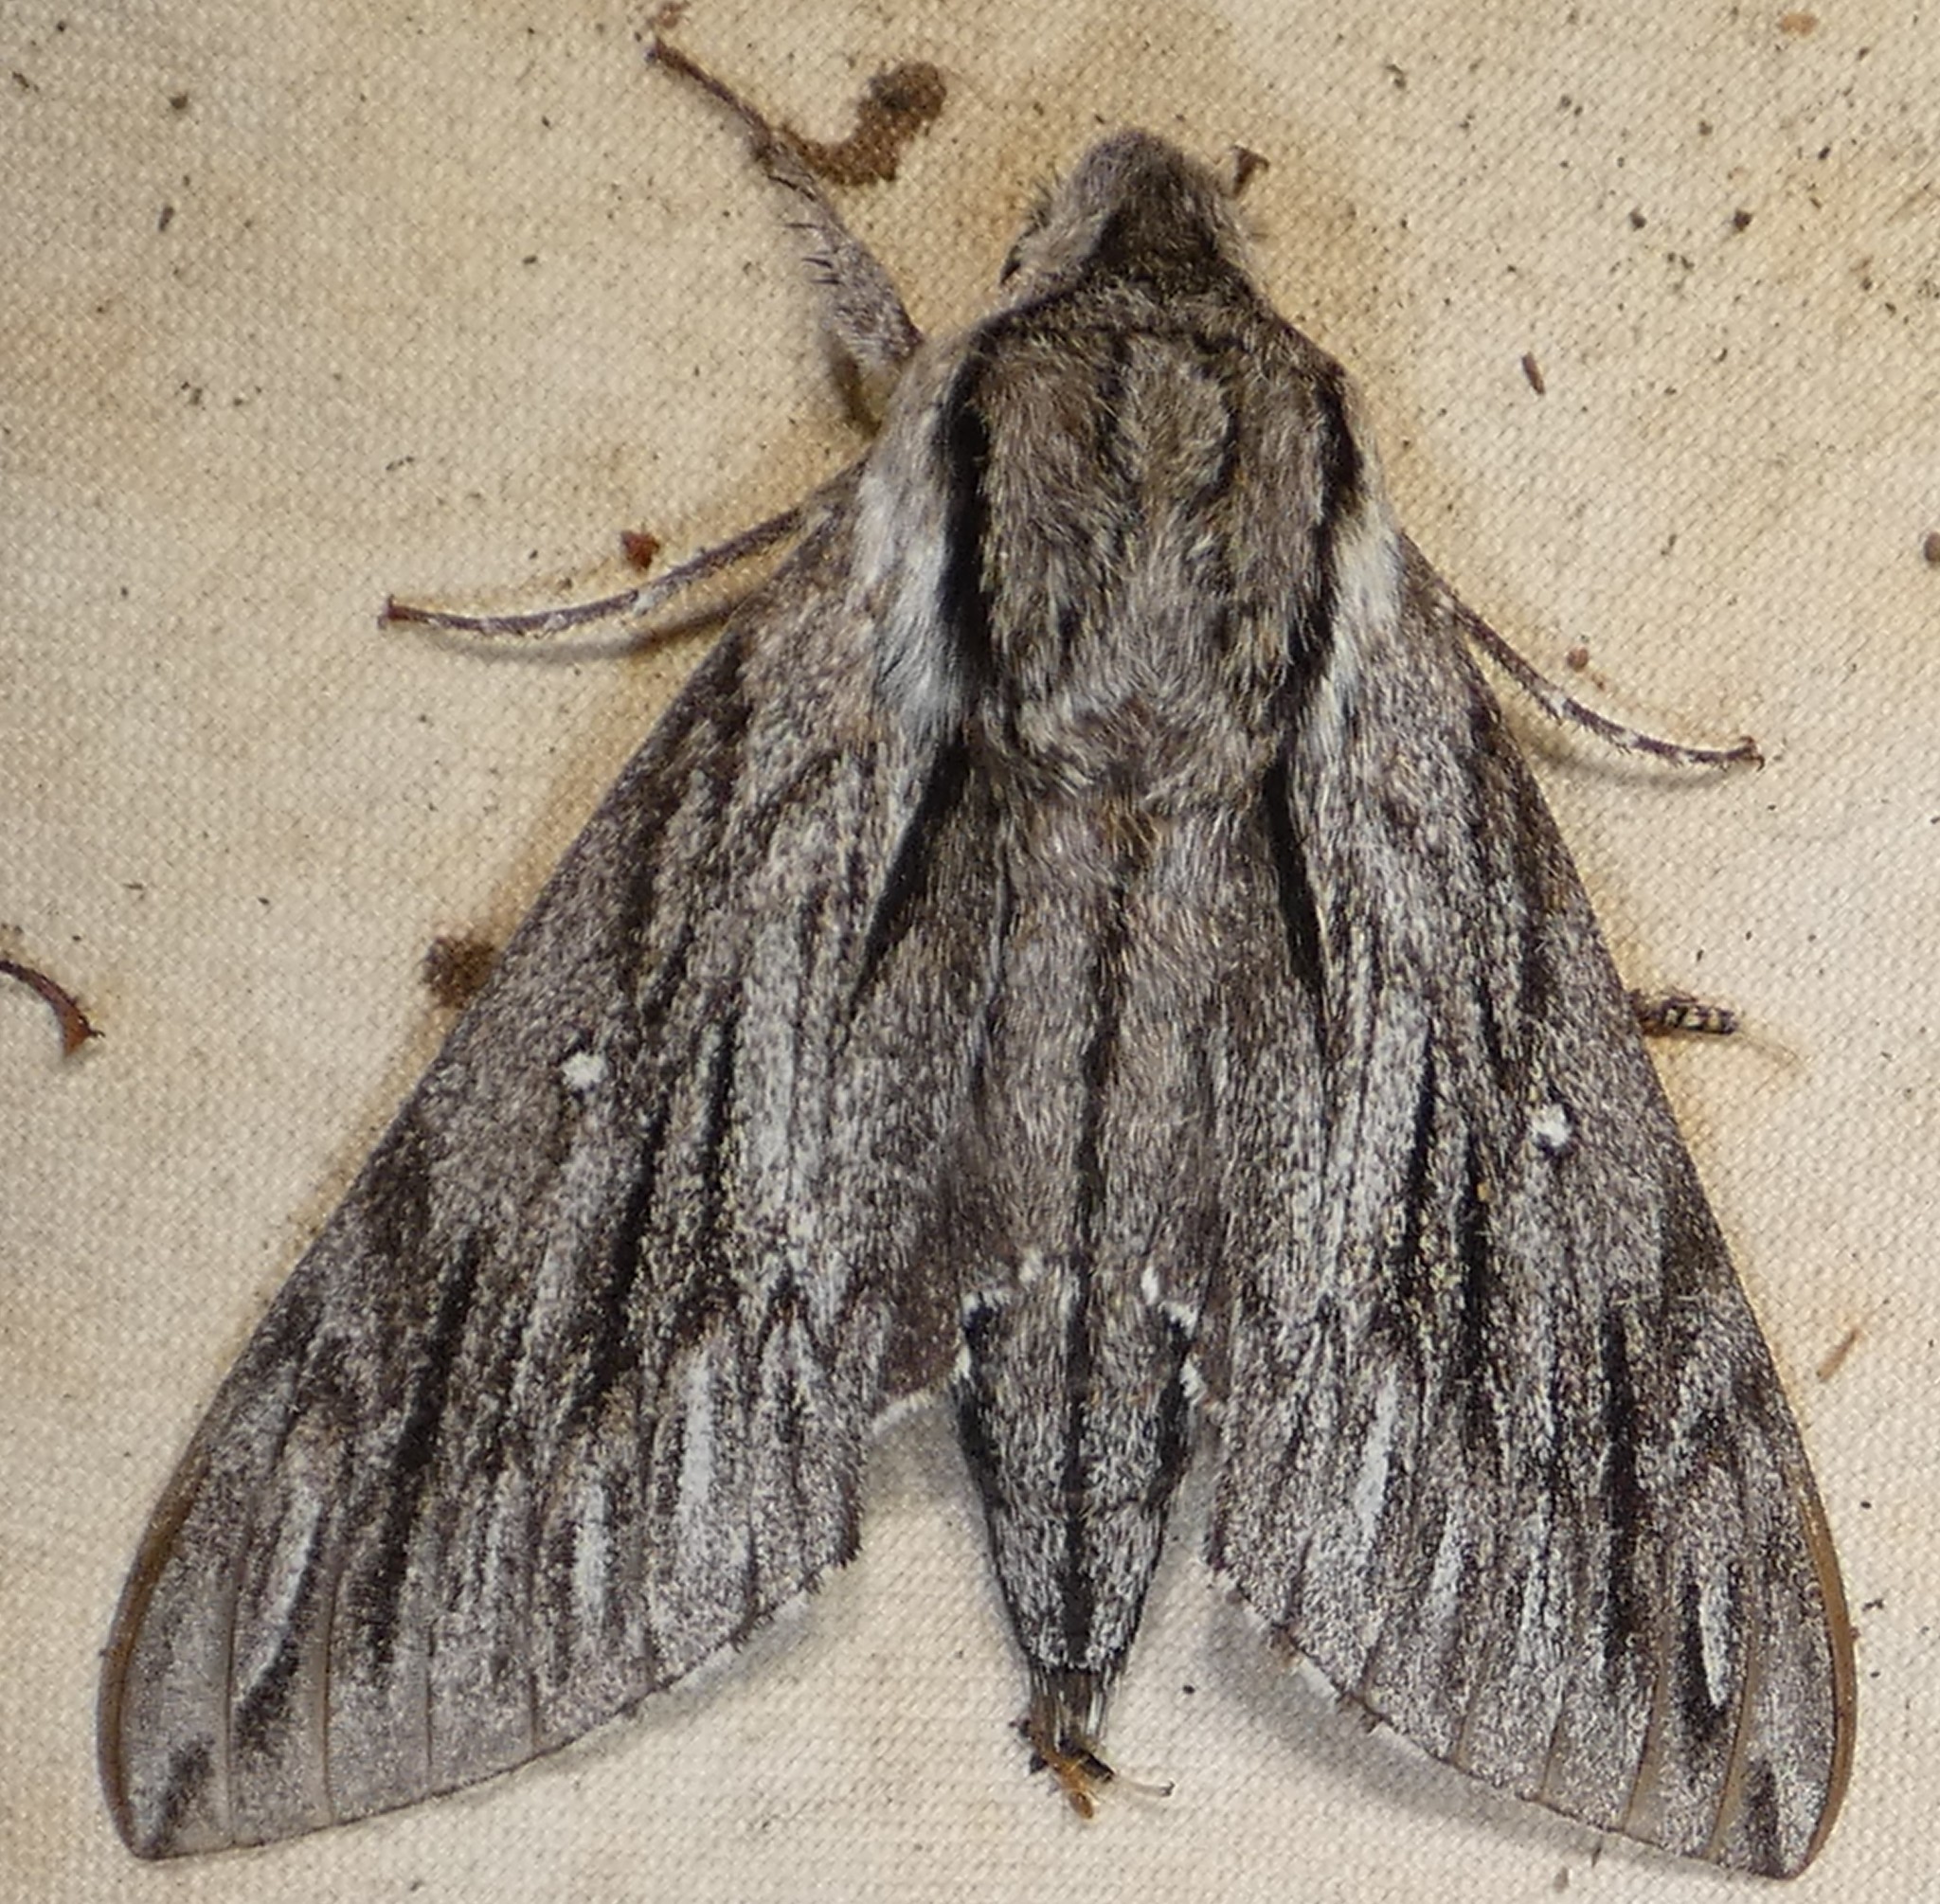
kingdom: Animalia
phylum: Arthropoda
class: Insecta
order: Lepidoptera
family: Sphingidae
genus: Paratrea
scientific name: Paratrea plebeja
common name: Plebian sphinx
